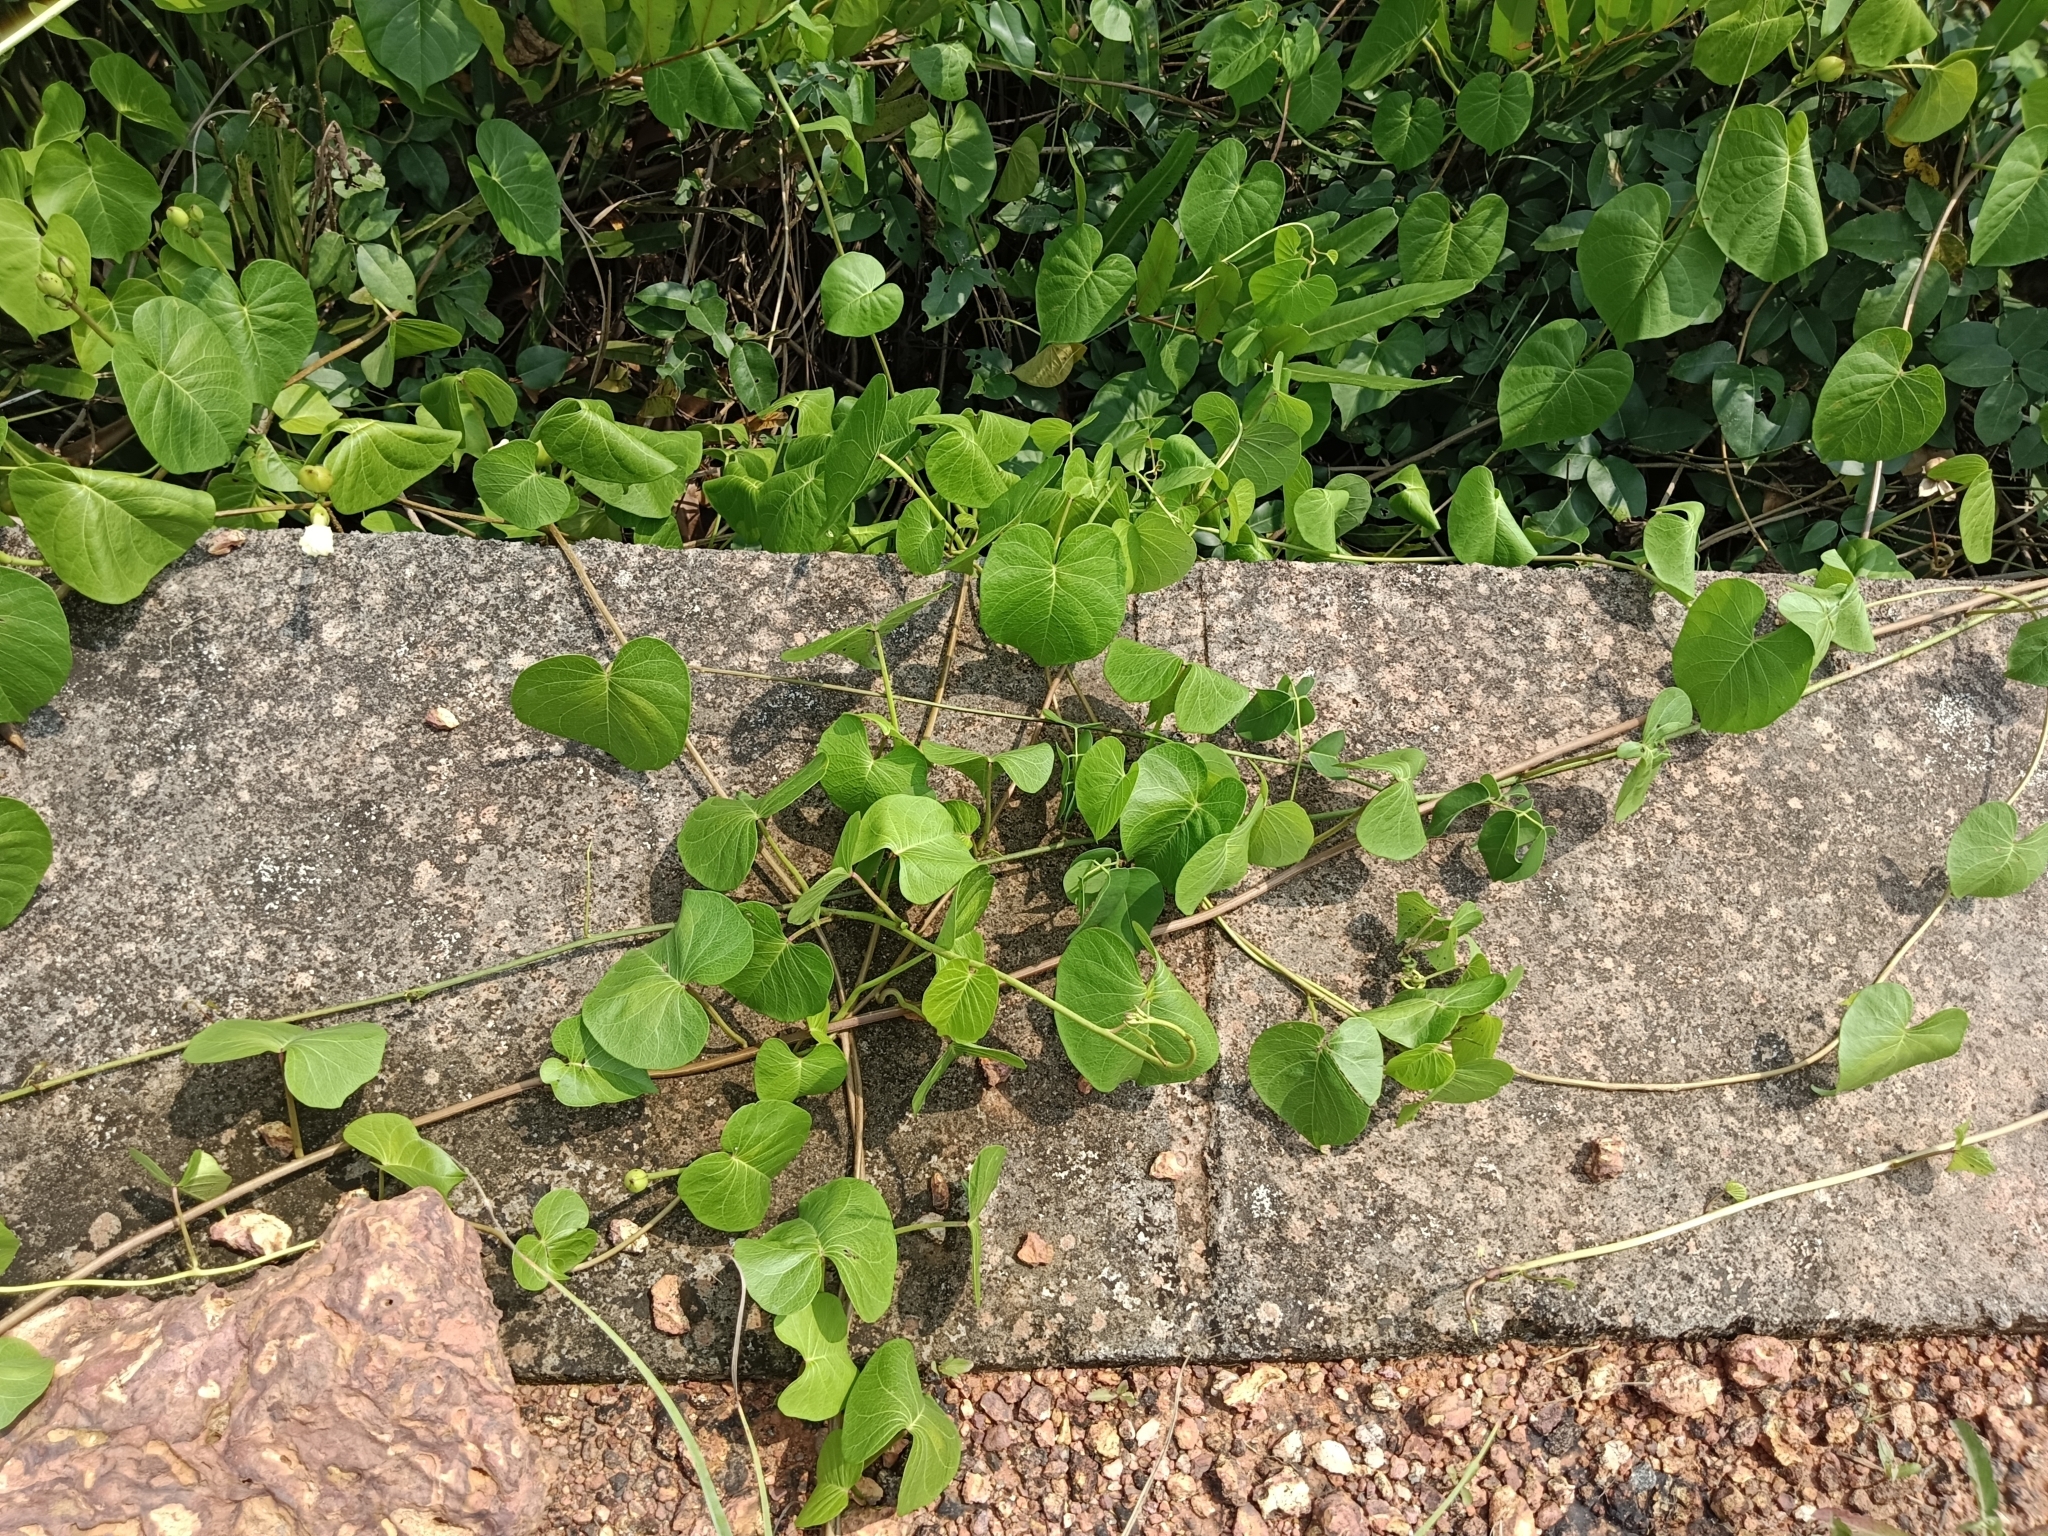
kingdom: Plantae
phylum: Tracheophyta
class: Magnoliopsida
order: Solanales
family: Convolvulaceae
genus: Ipomoea
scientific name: Ipomoea violacea
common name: Beach moonflower
